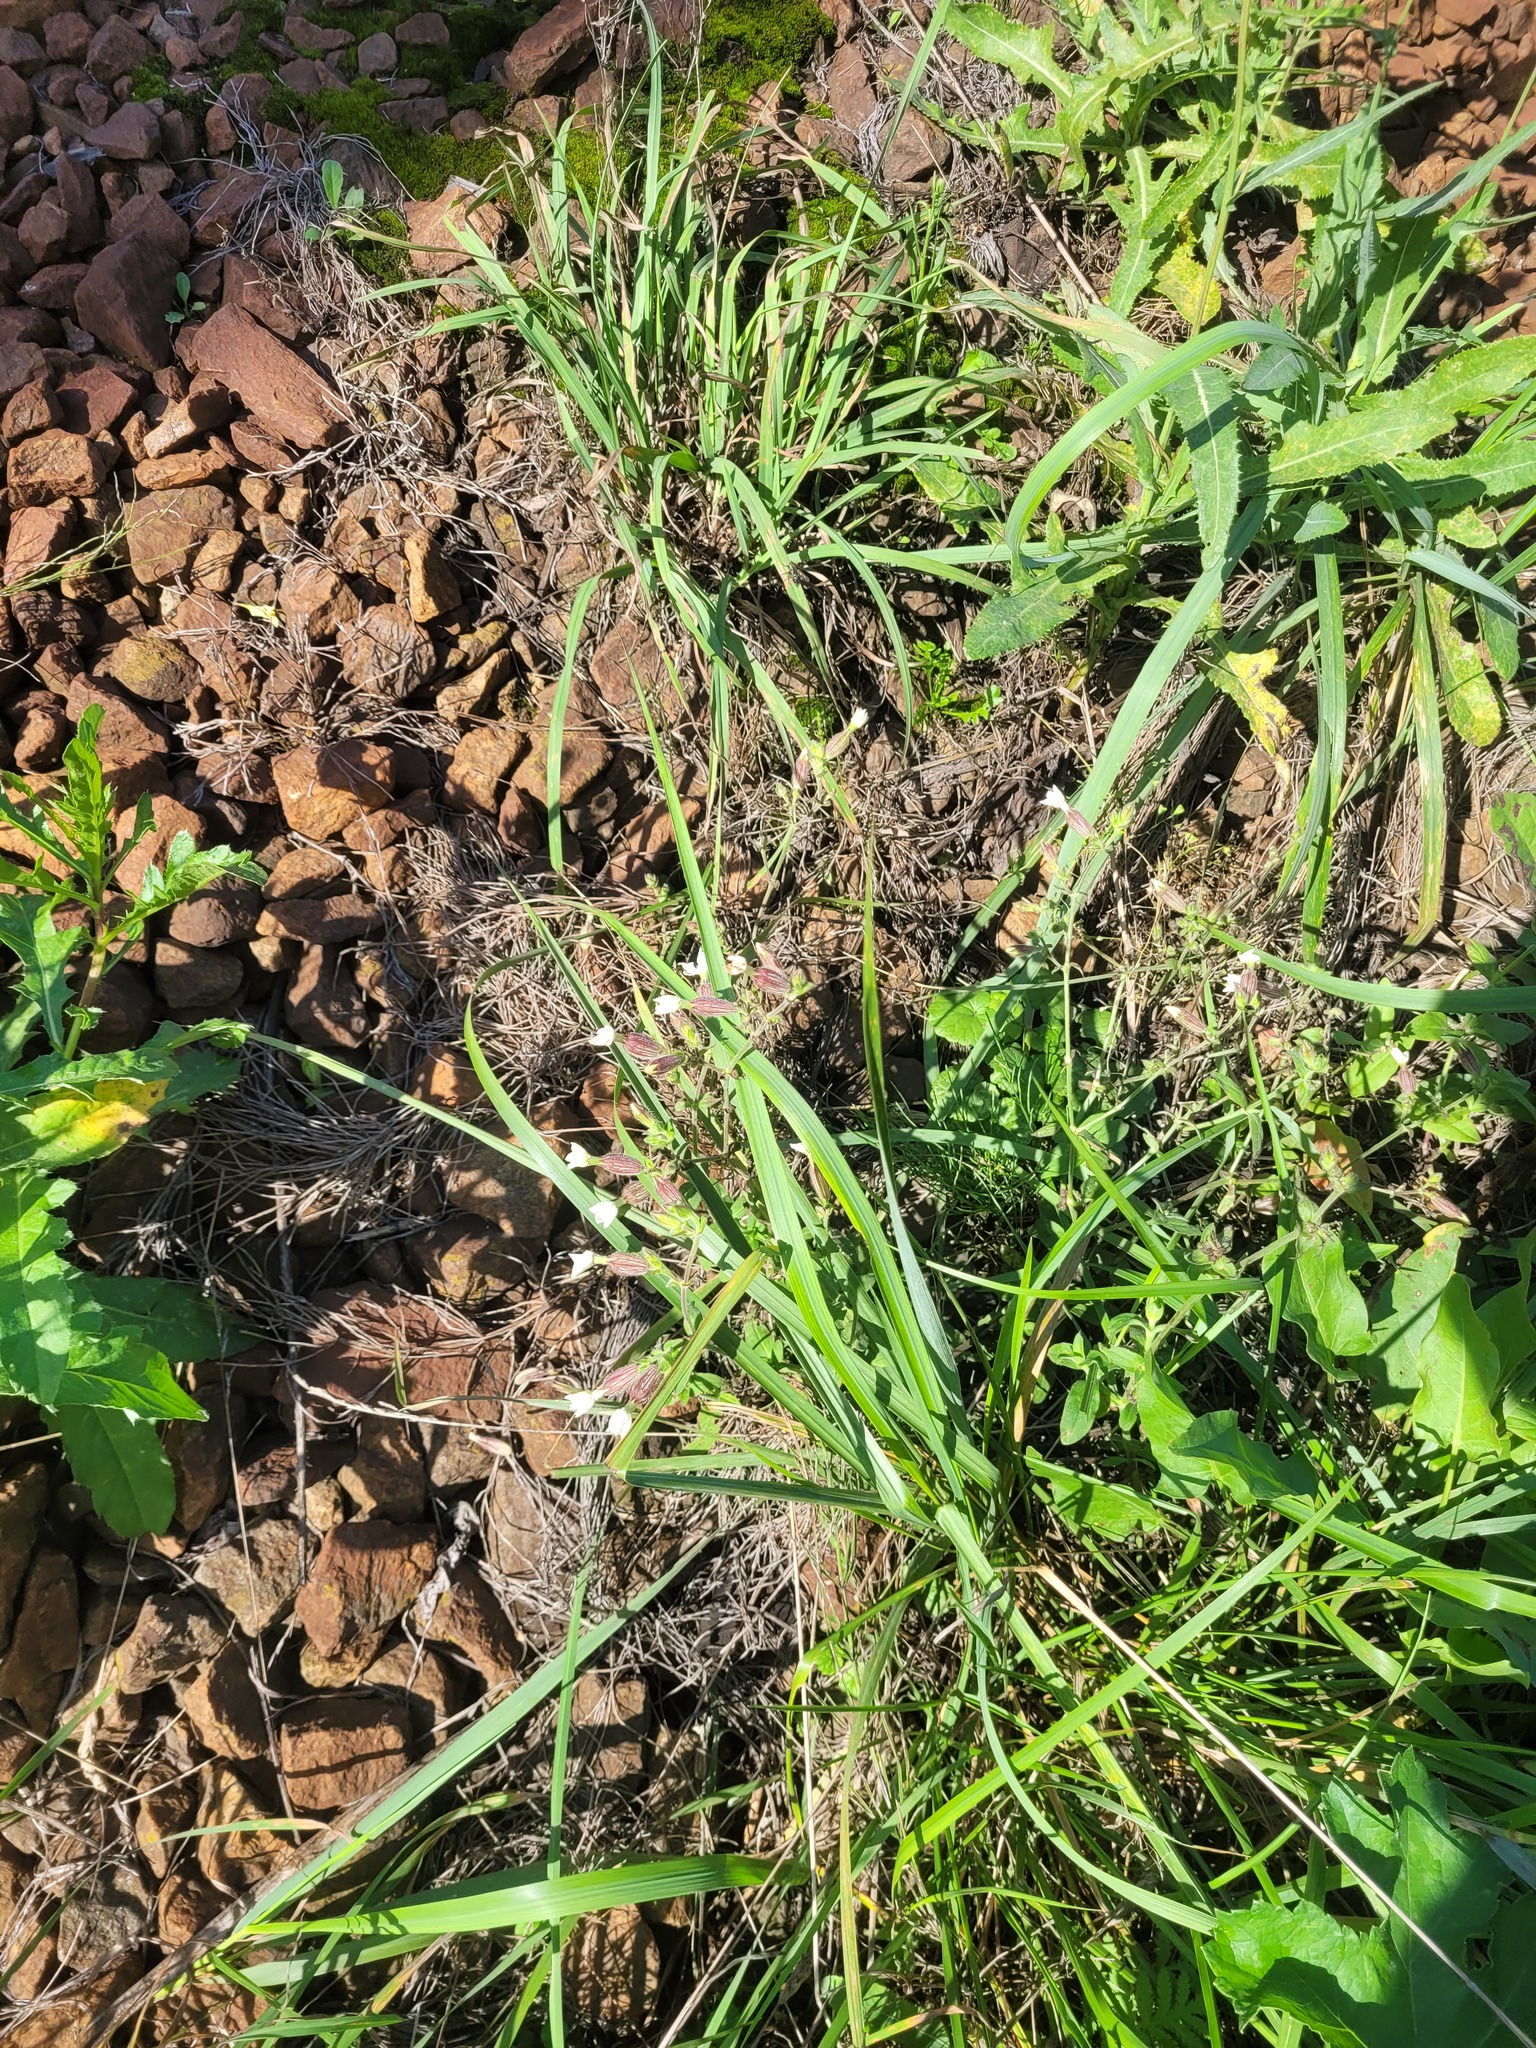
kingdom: Plantae
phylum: Tracheophyta
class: Magnoliopsida
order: Caryophyllales
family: Caryophyllaceae
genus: Silene
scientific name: Silene latifolia
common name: White campion
